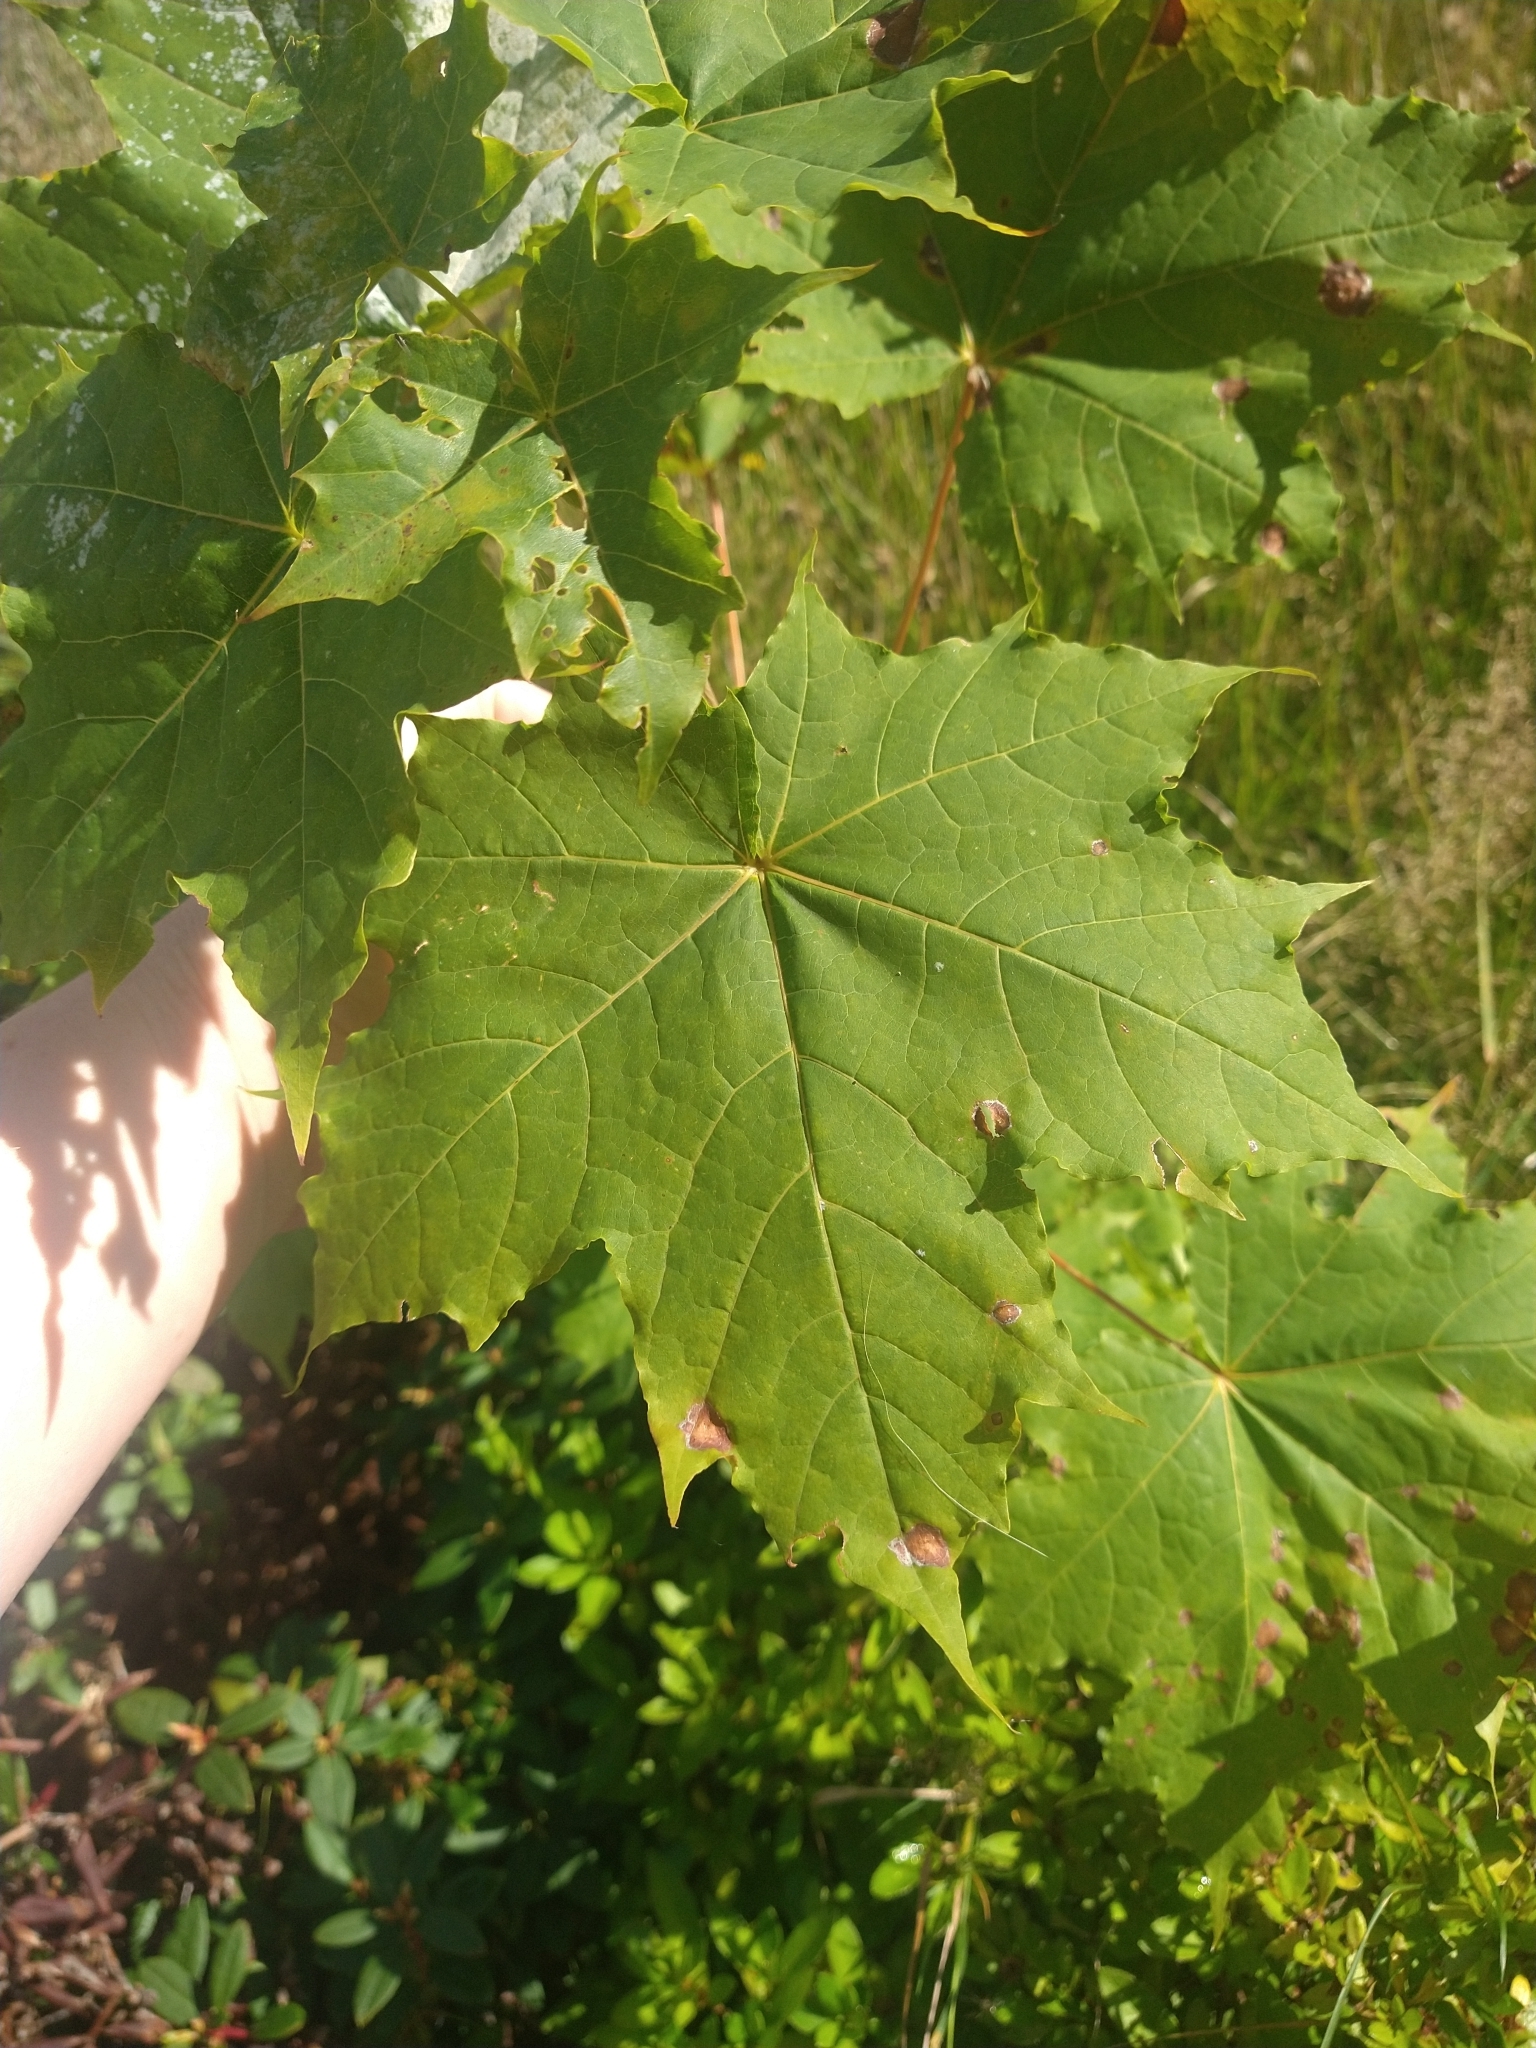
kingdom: Plantae
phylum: Tracheophyta
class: Magnoliopsida
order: Sapindales
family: Sapindaceae
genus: Acer
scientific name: Acer platanoides
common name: Norway maple
